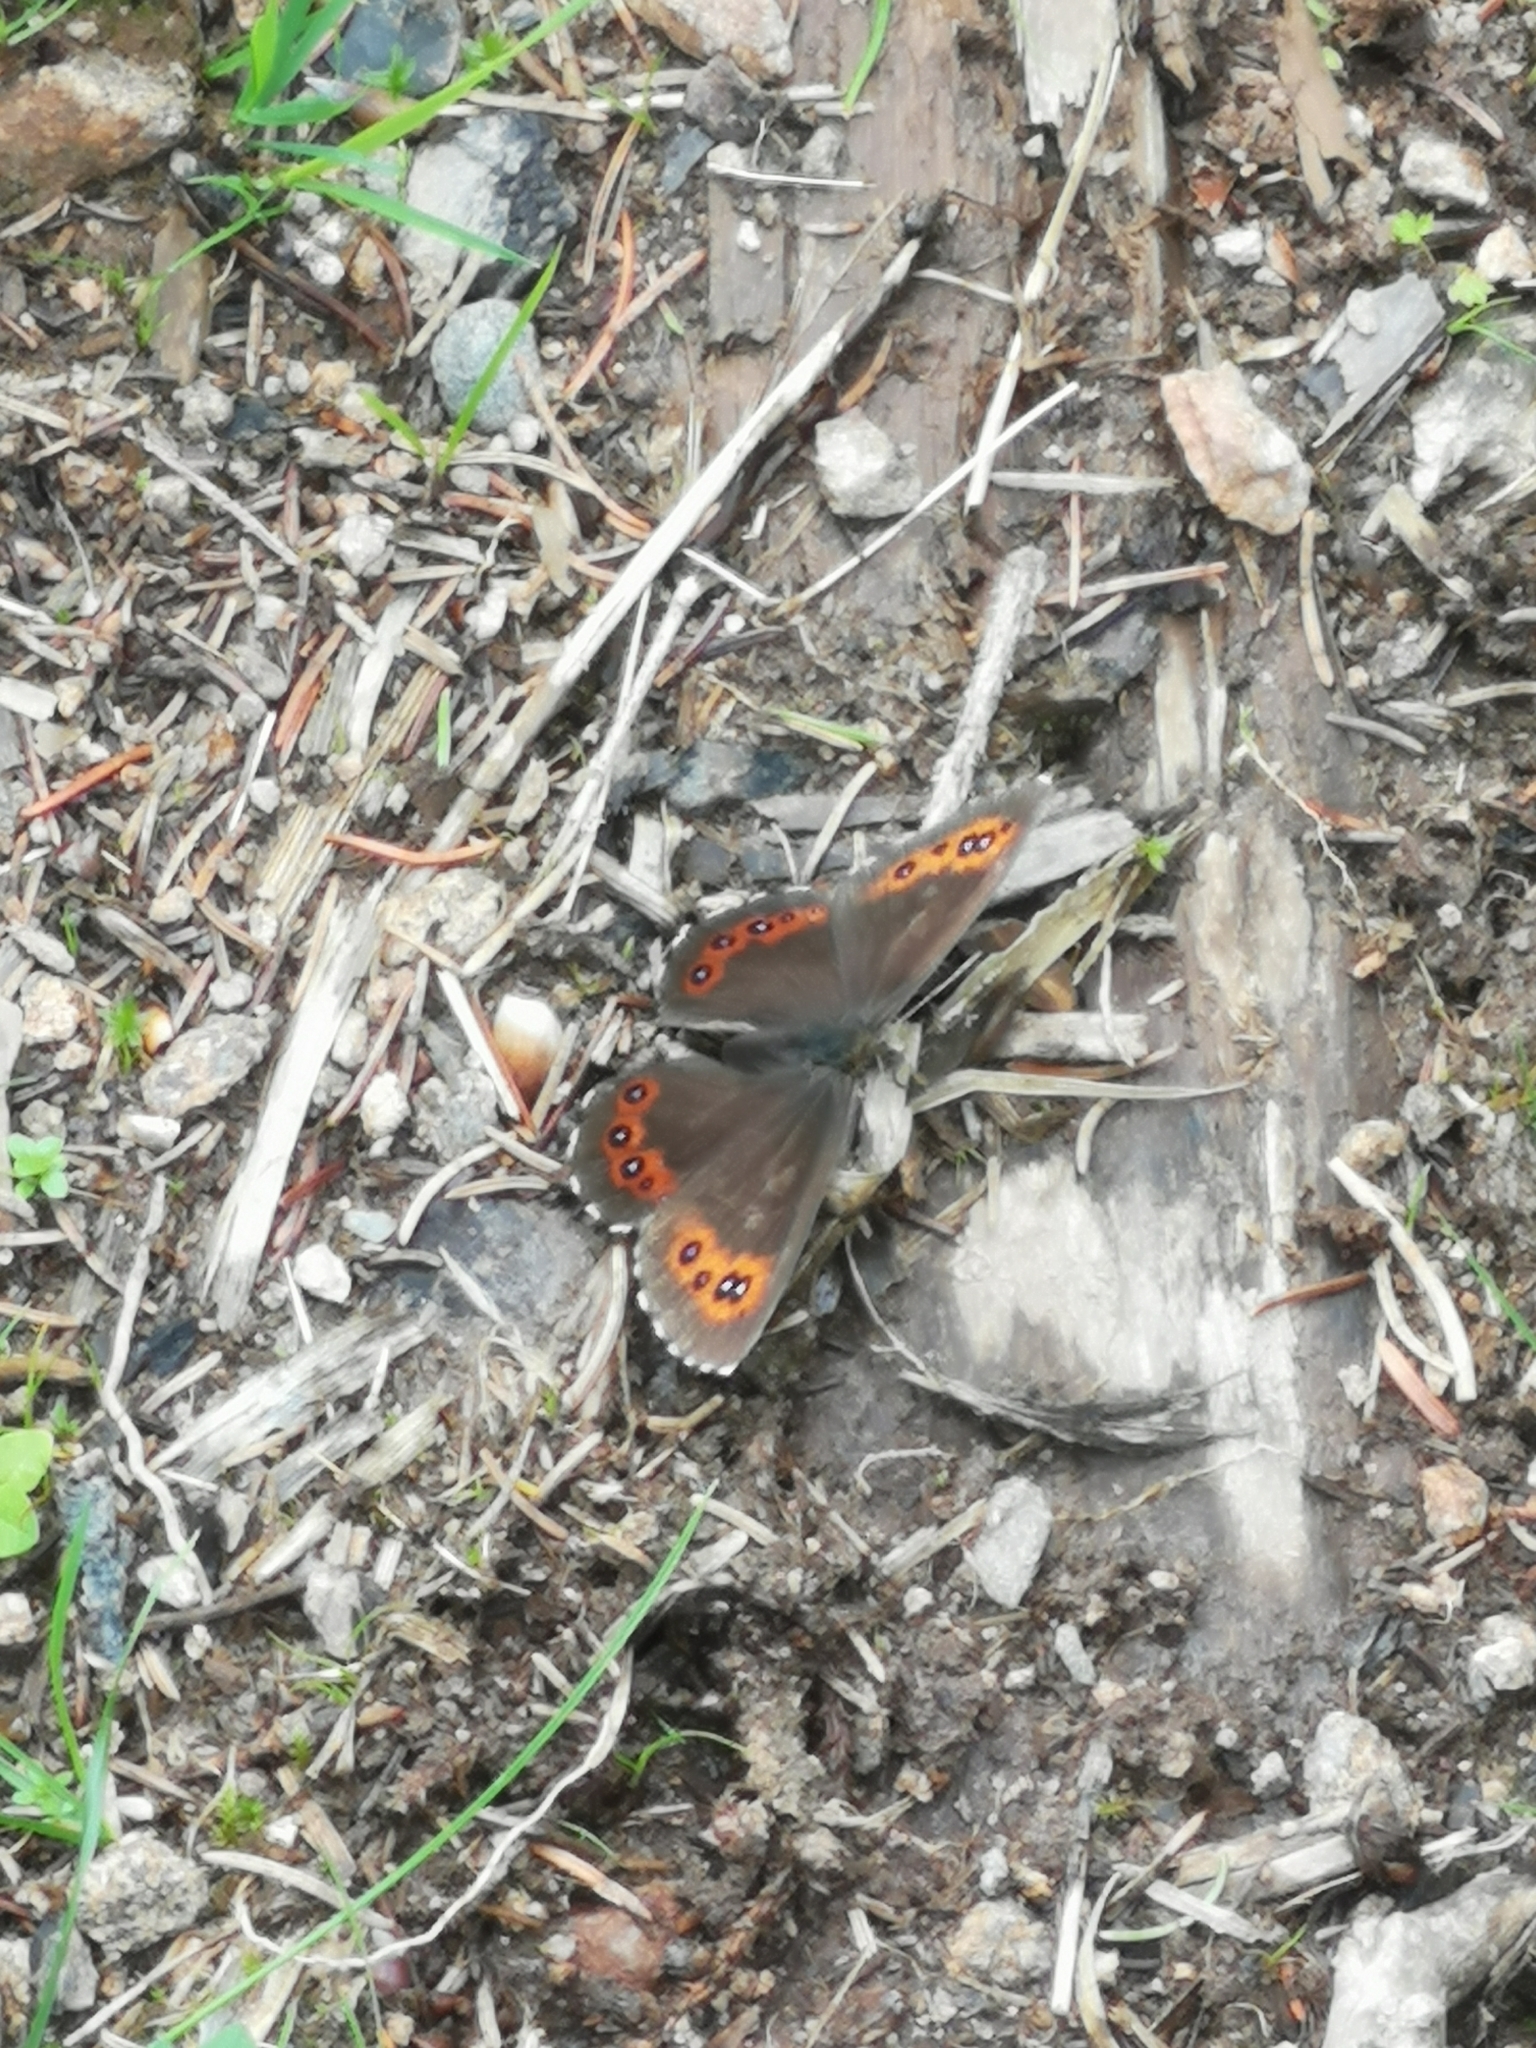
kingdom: Animalia
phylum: Arthropoda
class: Insecta
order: Lepidoptera
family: Nymphalidae
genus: Erebia
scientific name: Erebia ligea
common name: Arran brown
